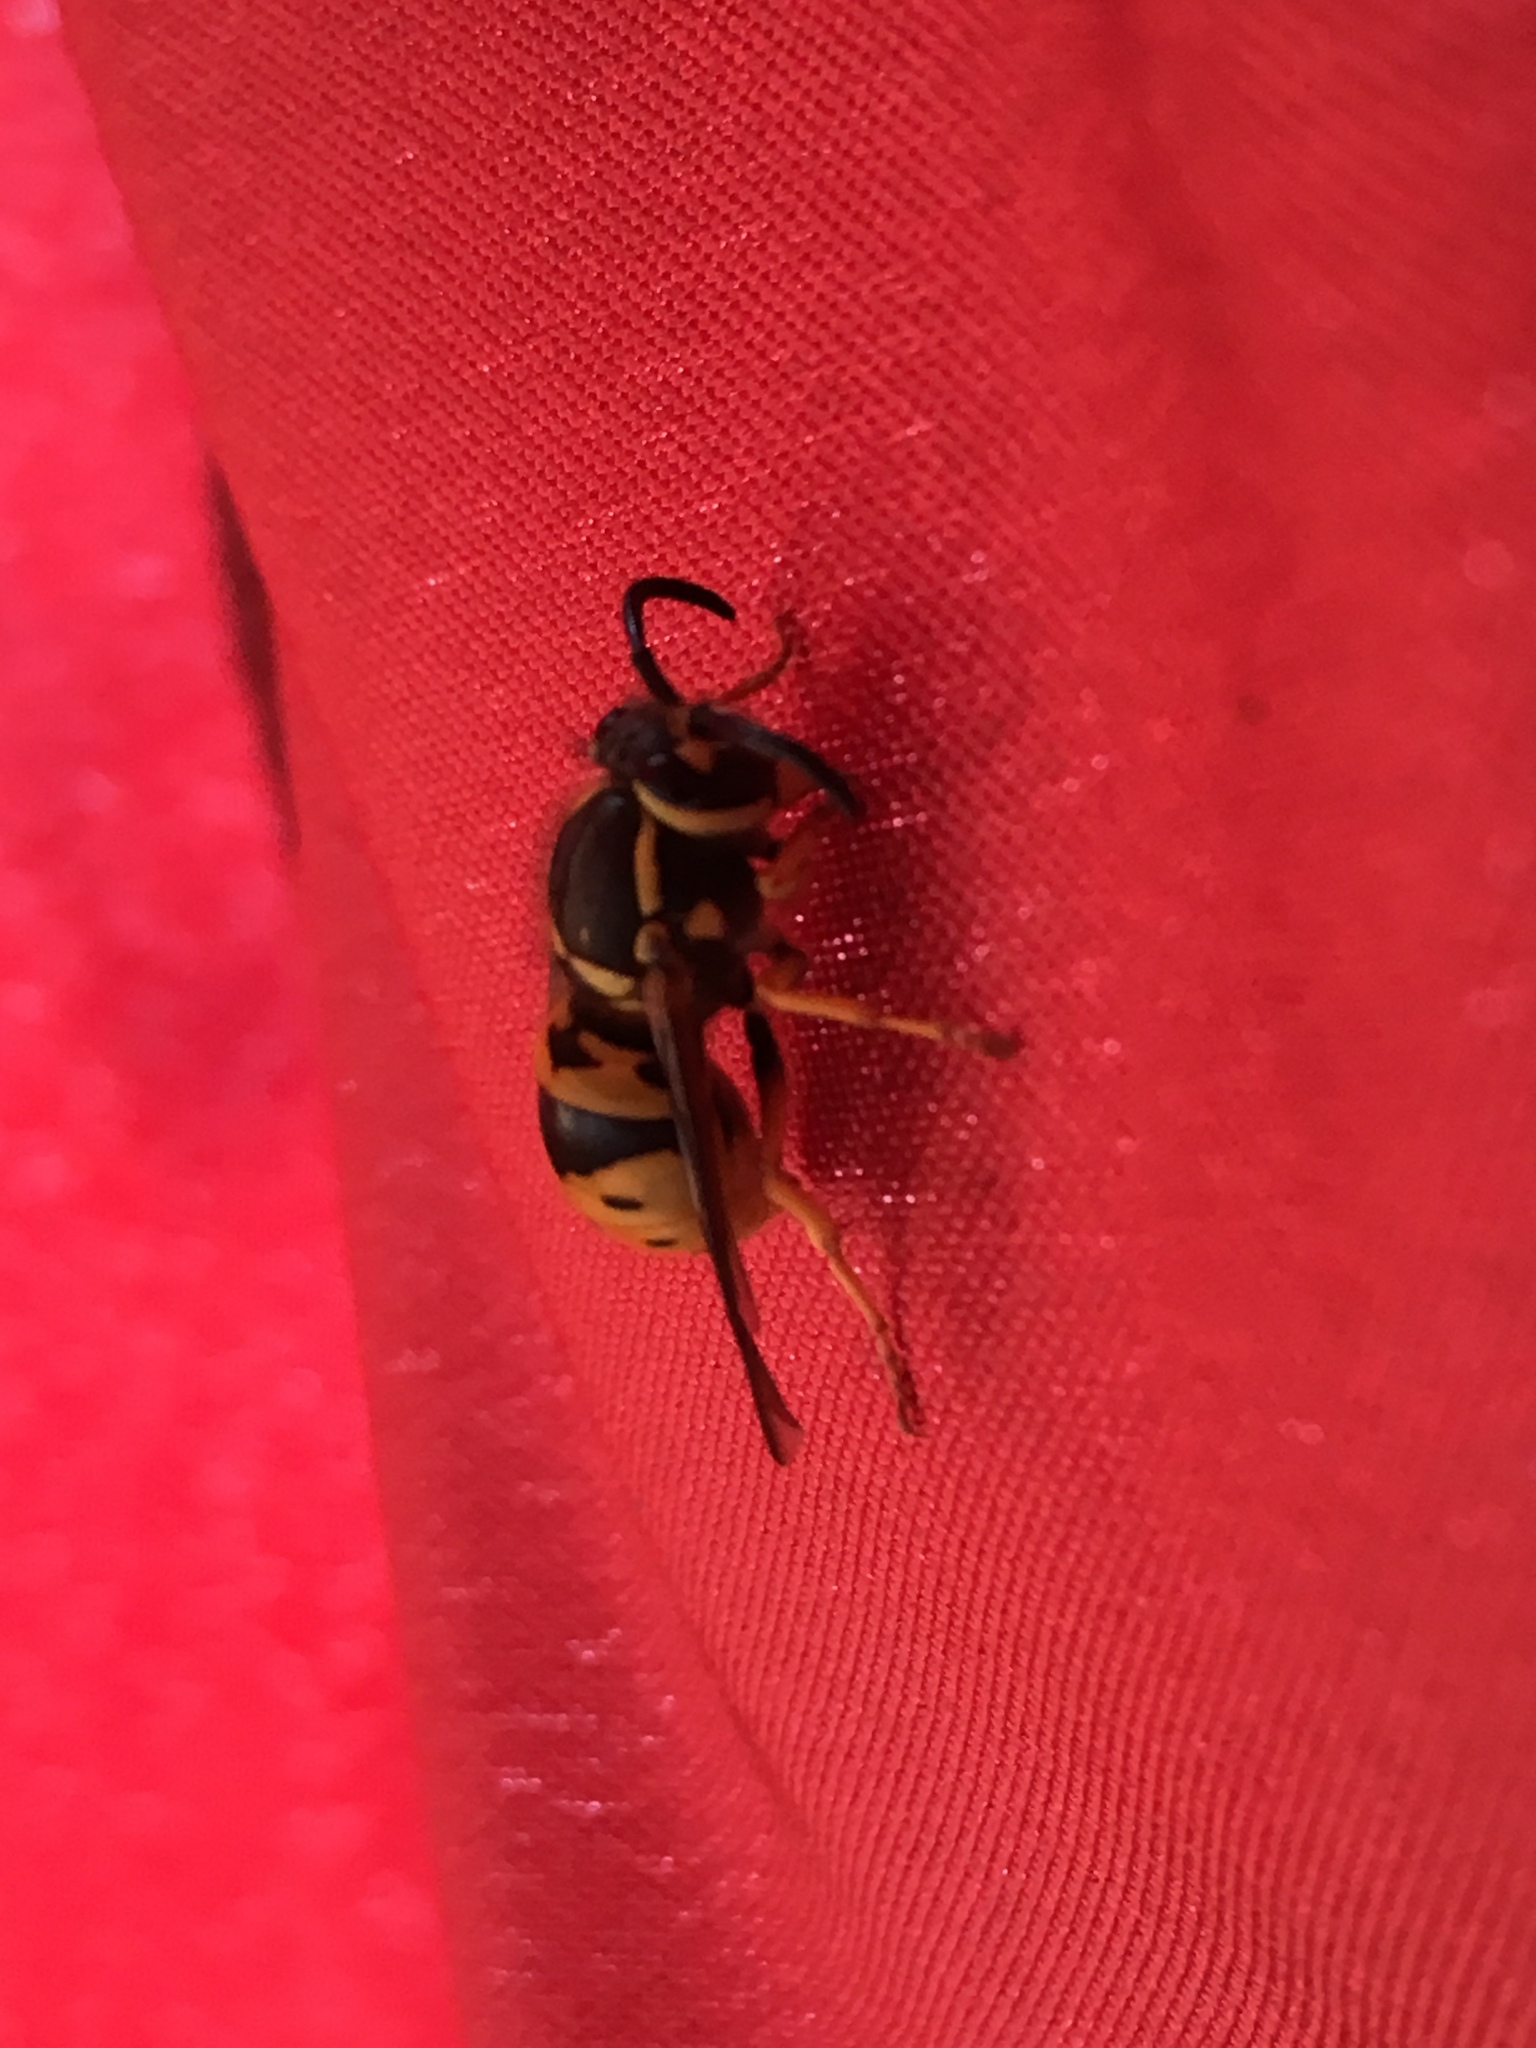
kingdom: Animalia
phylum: Arthropoda
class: Insecta
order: Hymenoptera
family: Vespidae
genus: Vespula
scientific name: Vespula maculifrons
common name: Eastern yellowjacket
